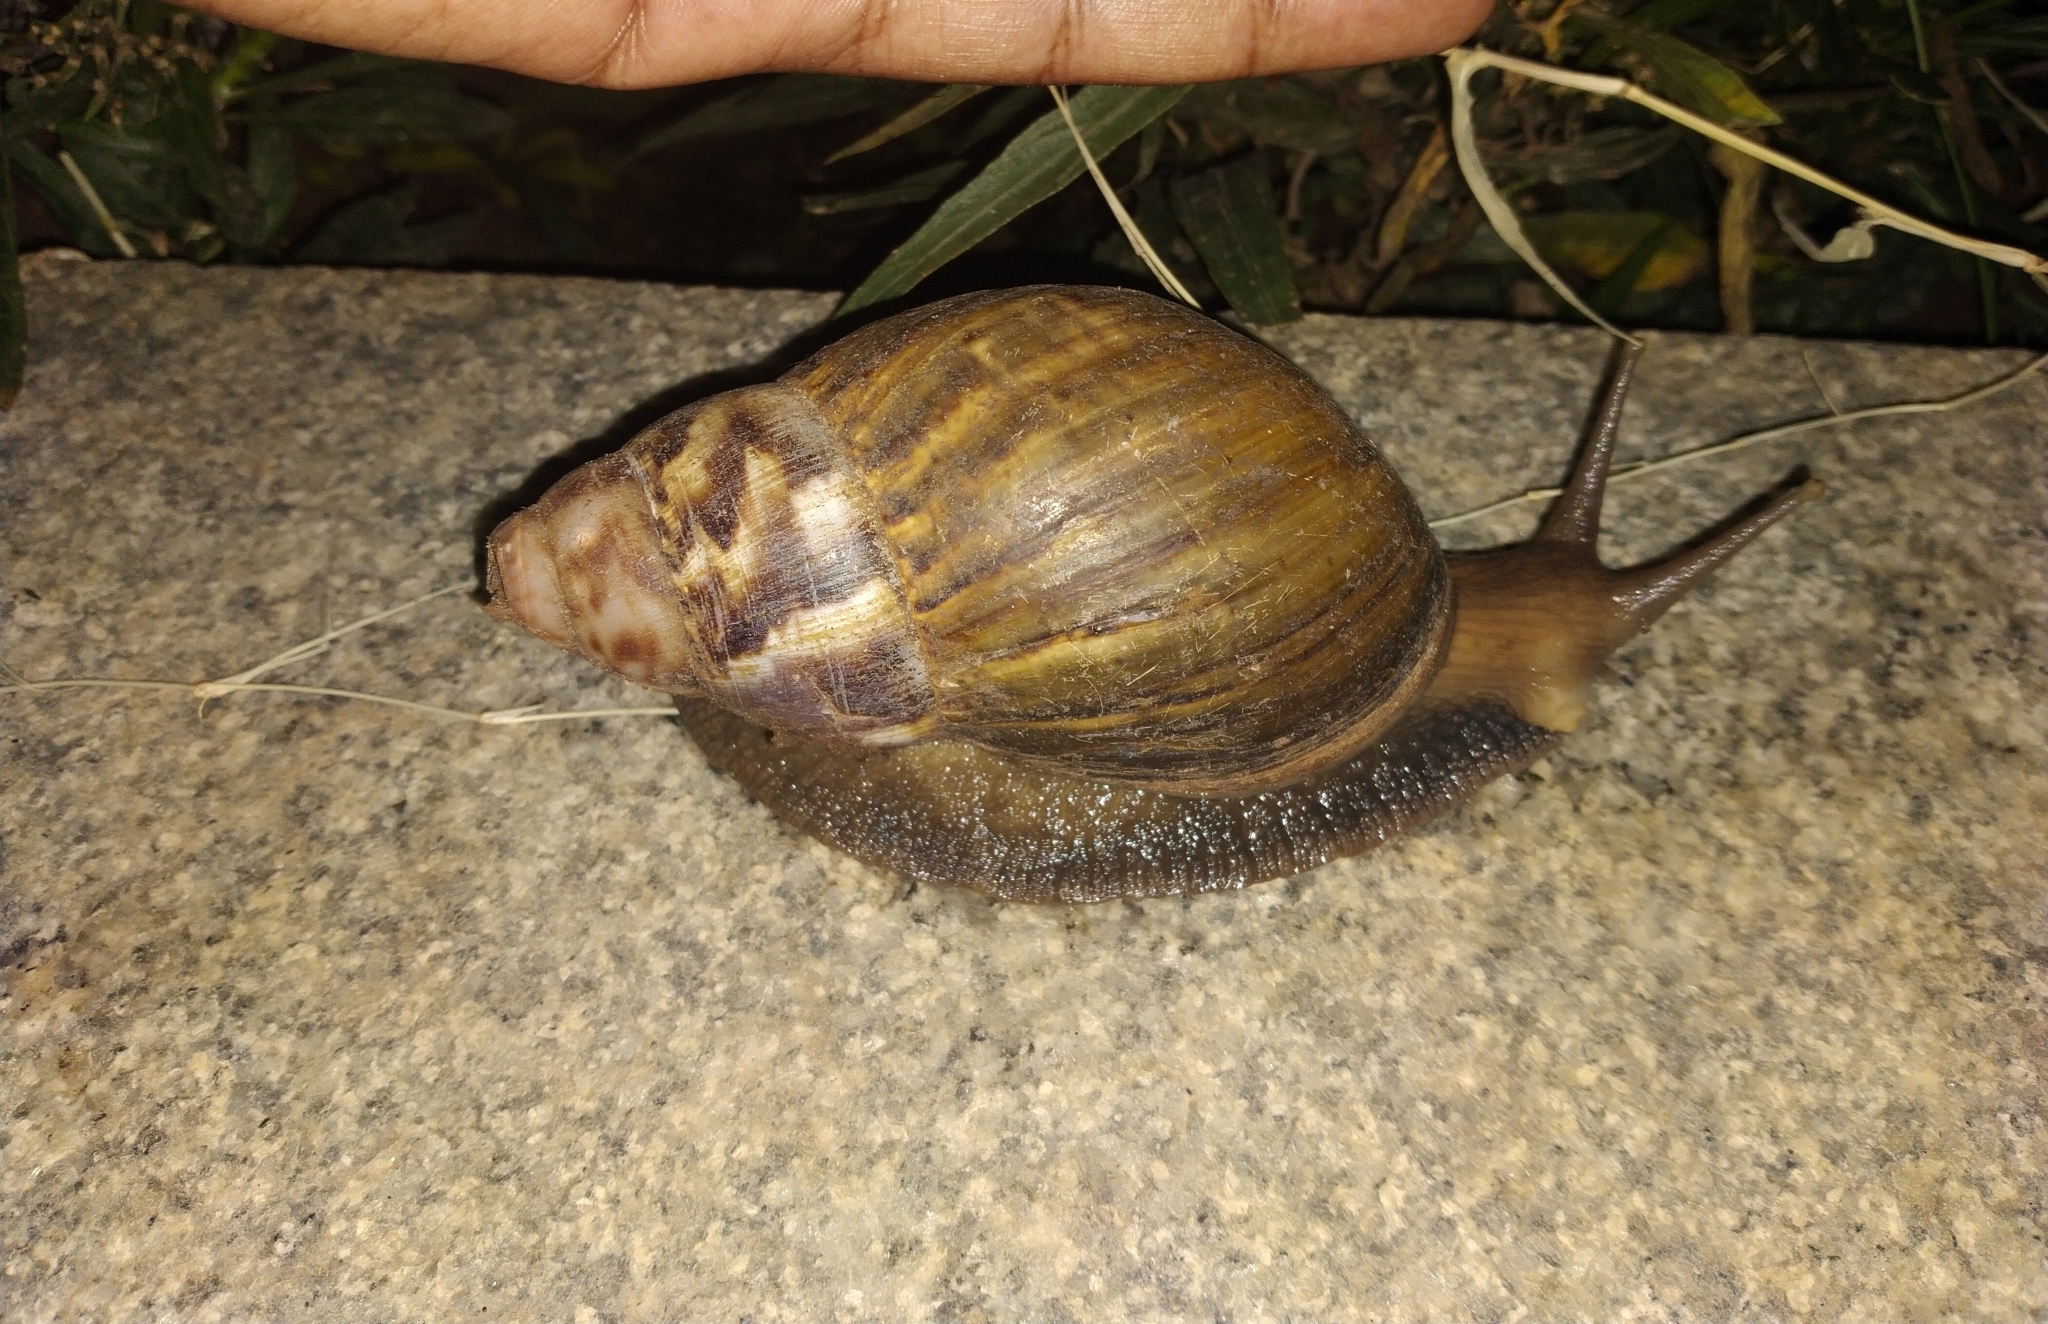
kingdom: Animalia
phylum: Mollusca
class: Gastropoda
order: Stylommatophora
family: Achatinidae
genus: Lissachatina
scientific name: Lissachatina fulica
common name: Giant african snail
